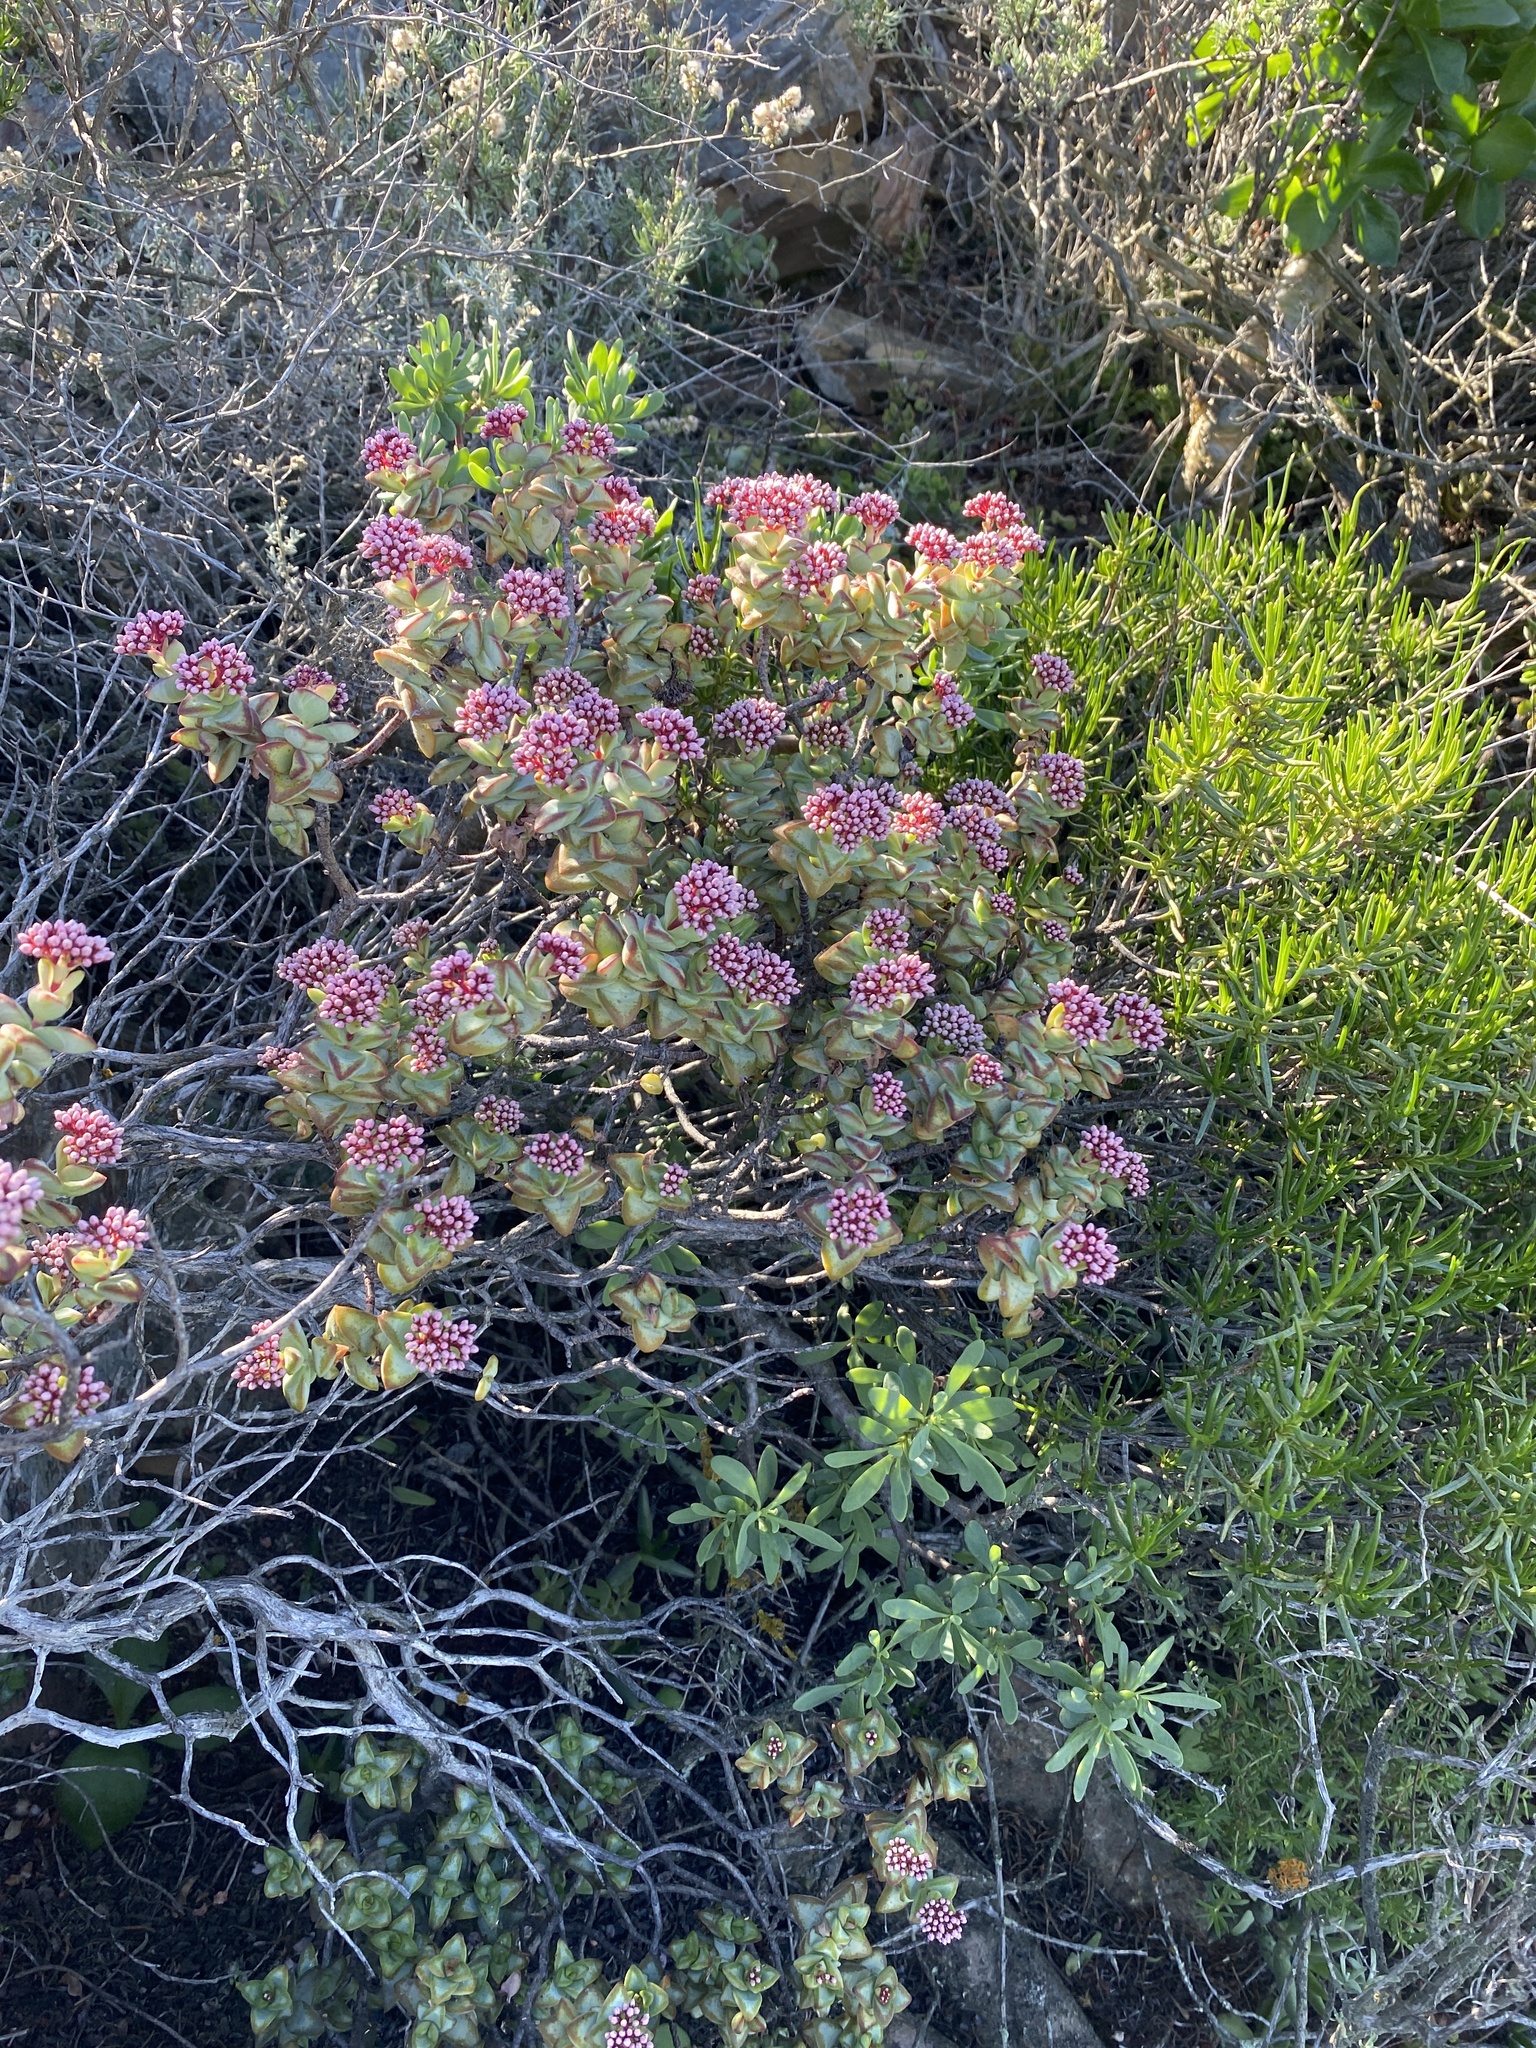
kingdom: Plantae
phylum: Tracheophyta
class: Magnoliopsida
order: Saxifragales
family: Crassulaceae
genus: Crassula
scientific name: Crassula rupestris
